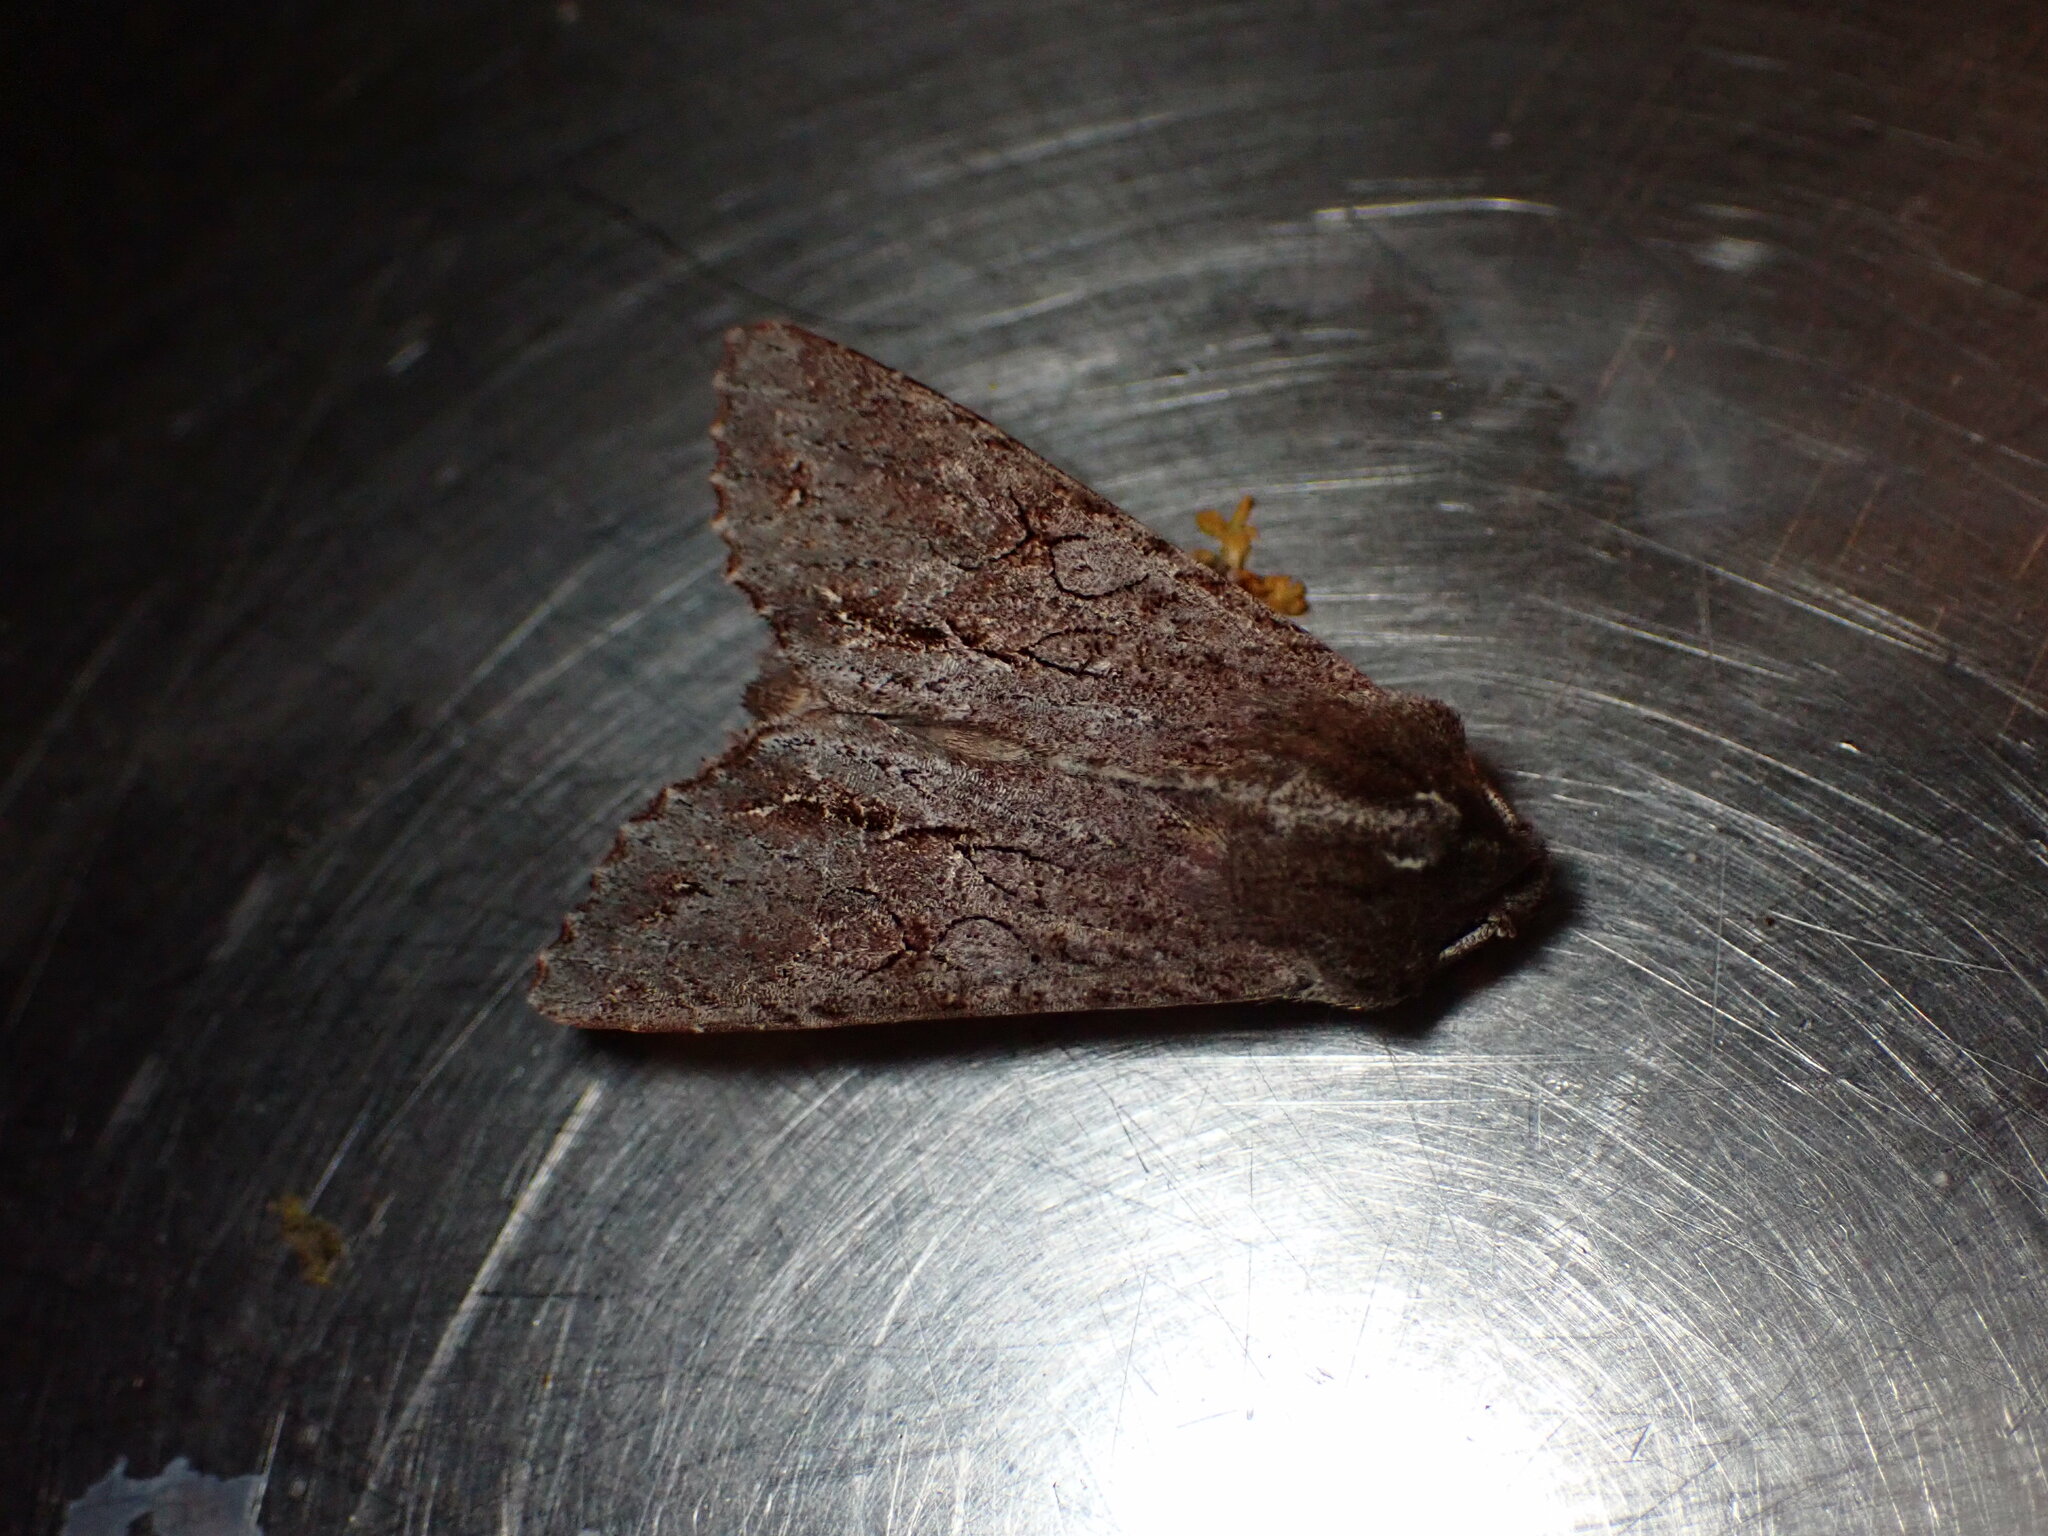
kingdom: Animalia
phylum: Arthropoda
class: Insecta
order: Lepidoptera
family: Noctuidae
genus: Ichneutica
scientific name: Ichneutica
